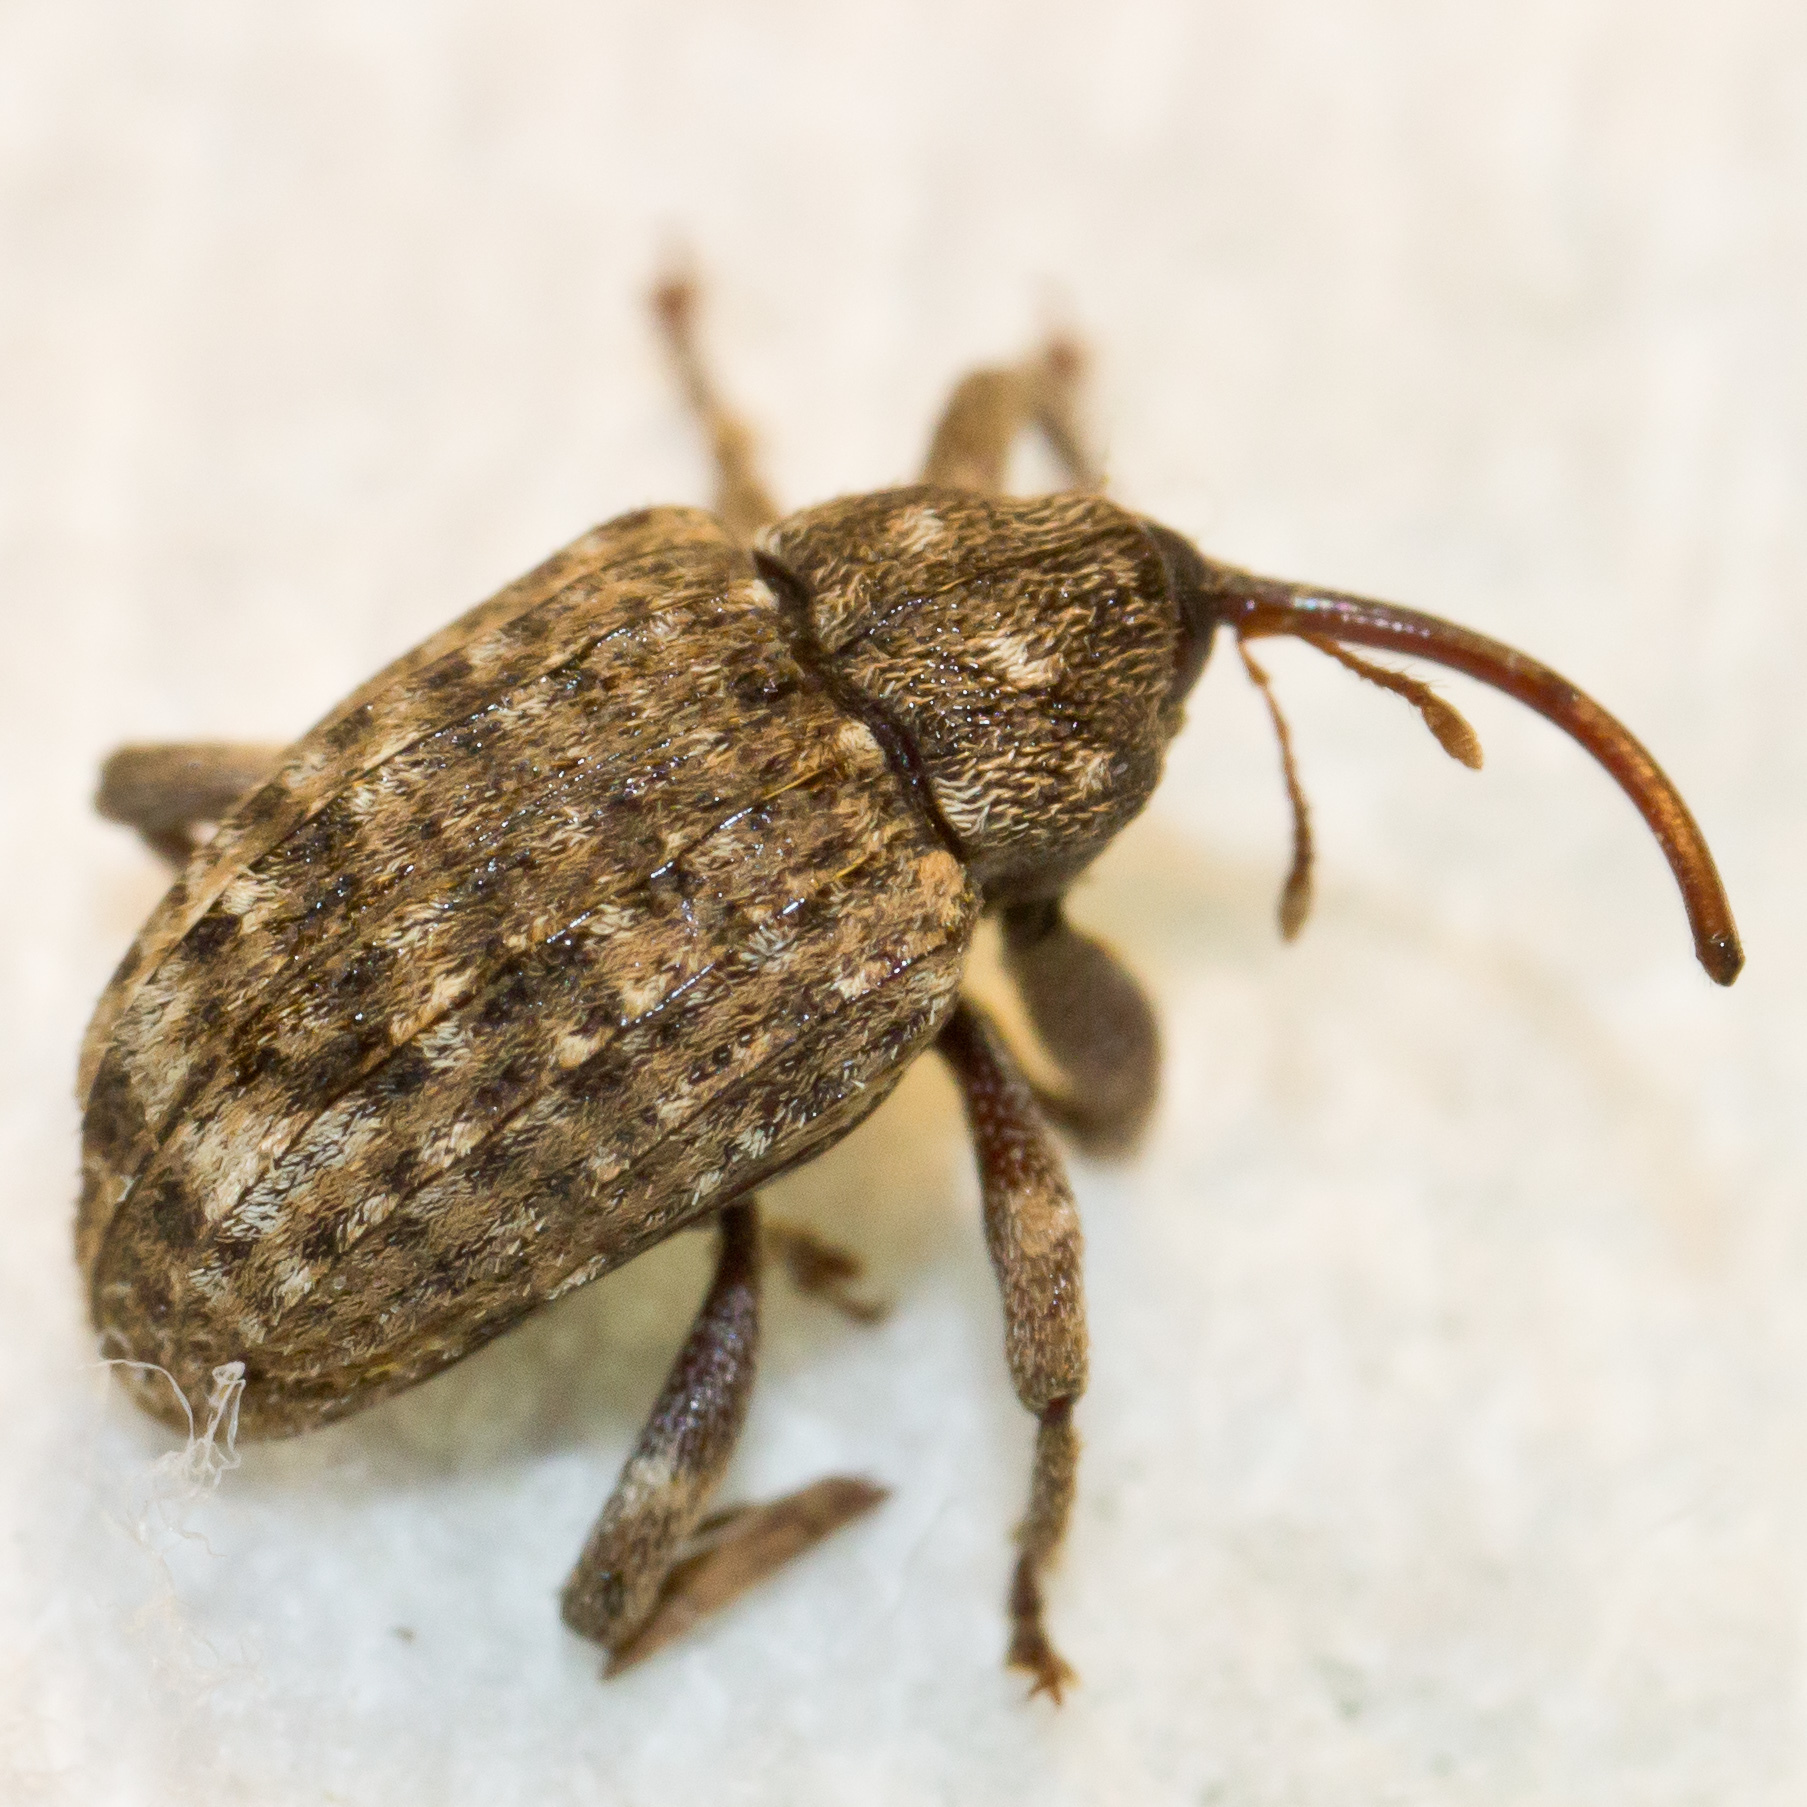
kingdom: Animalia
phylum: Arthropoda
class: Insecta
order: Coleoptera
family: Curculionidae
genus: Conotrachelus
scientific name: Conotrachelus naso
